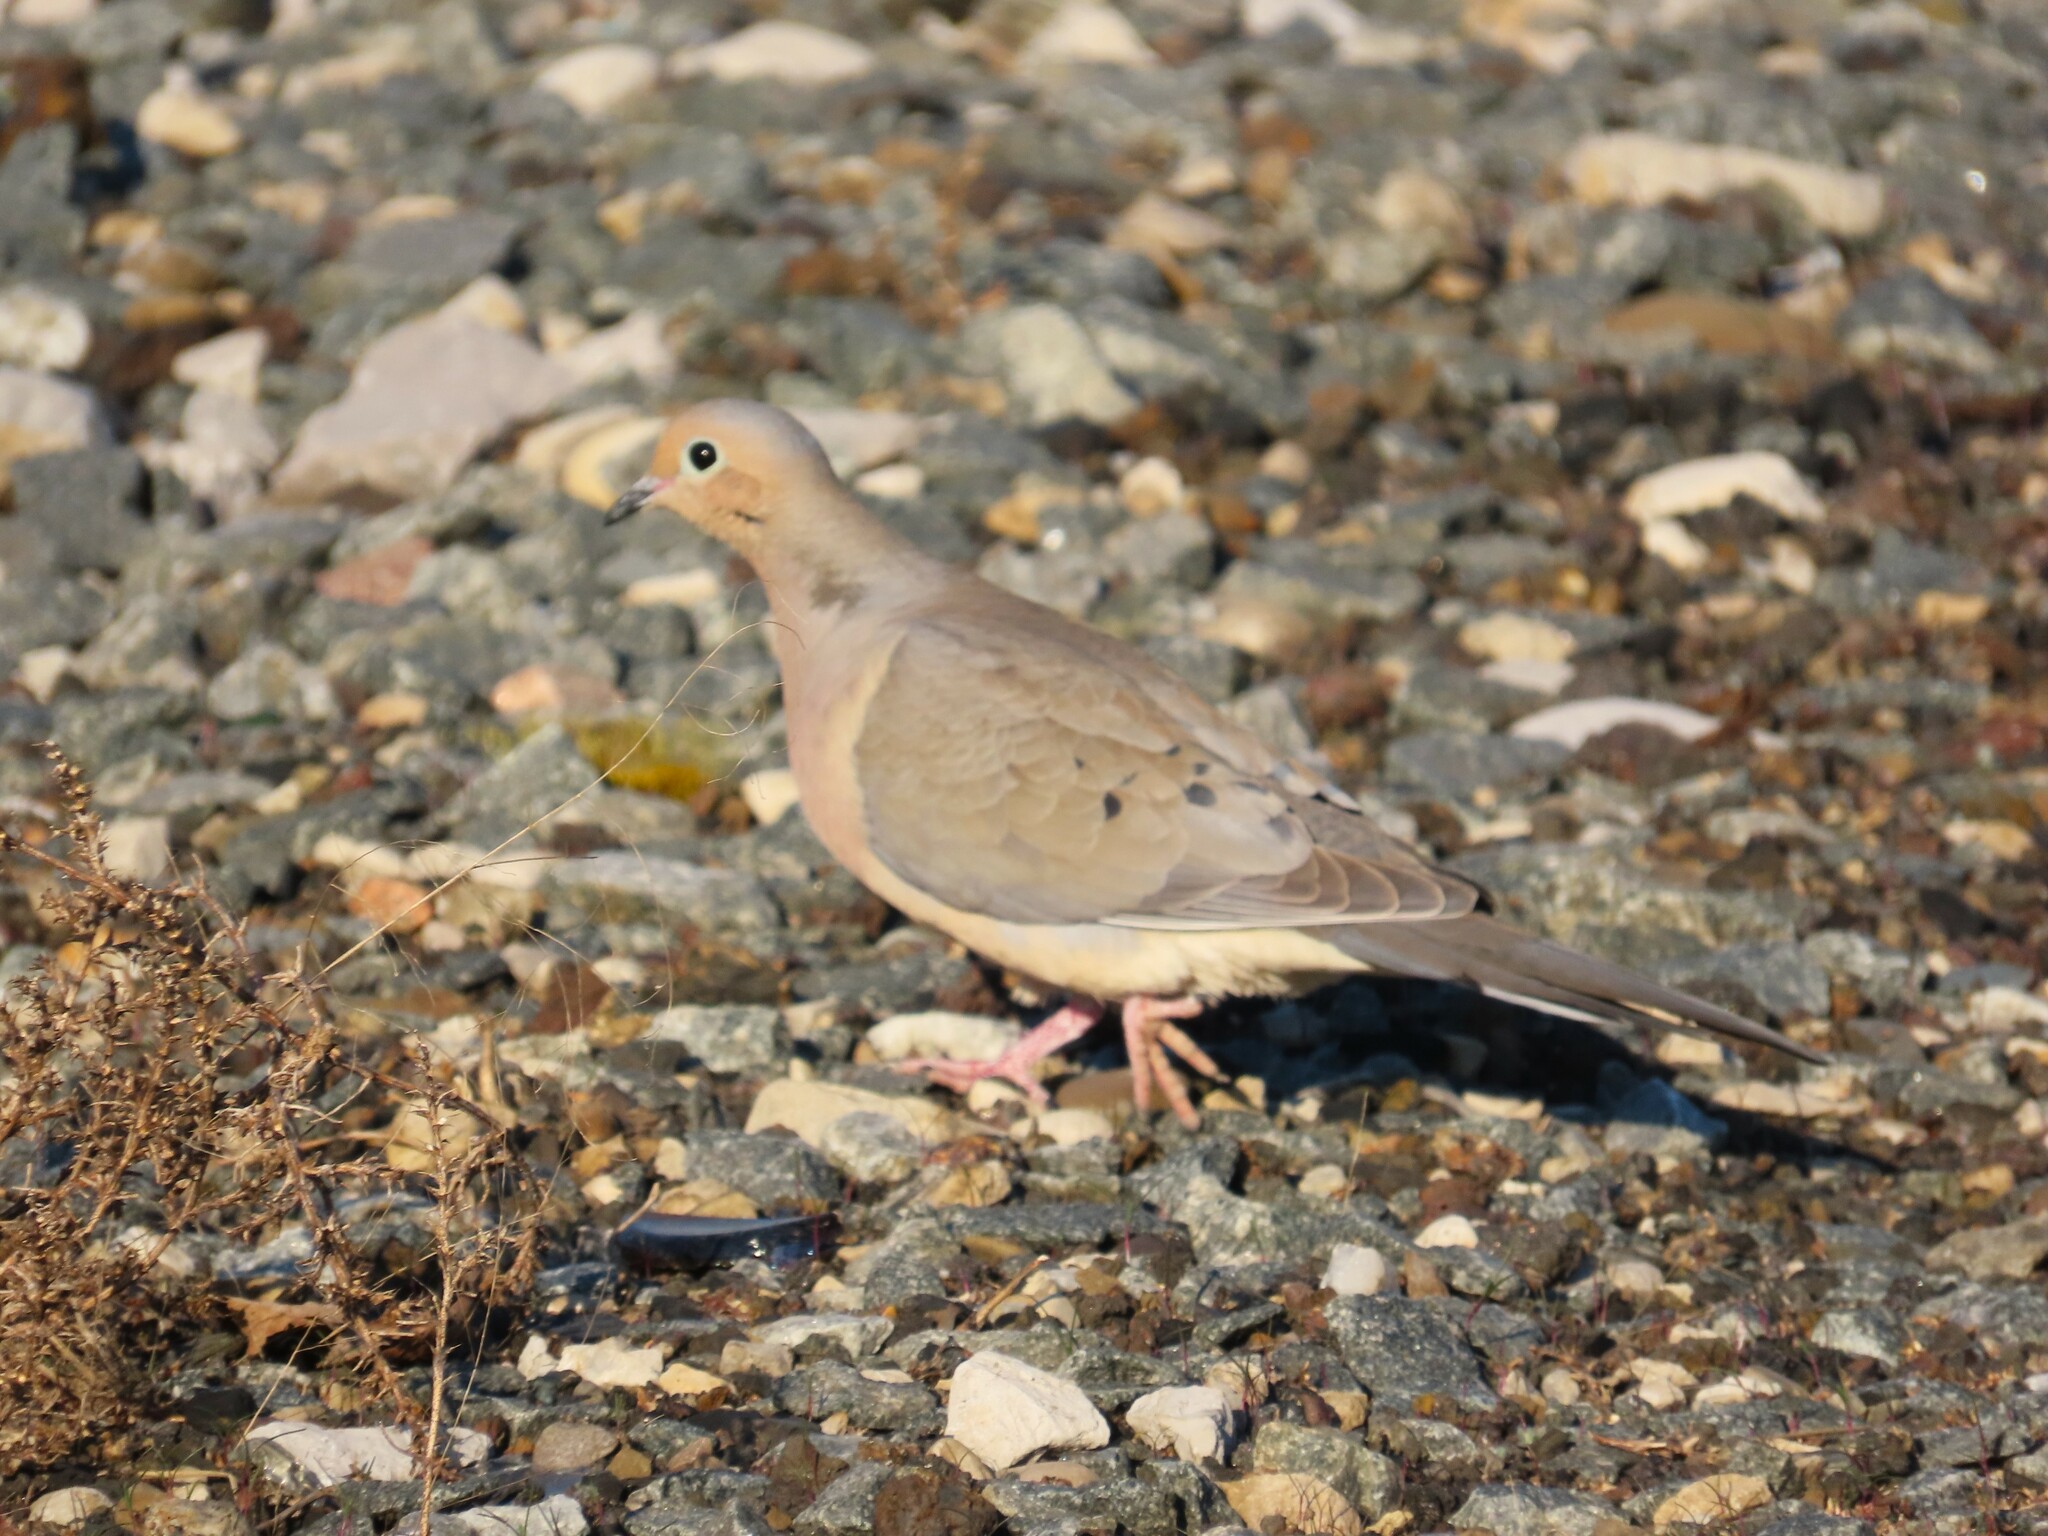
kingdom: Animalia
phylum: Chordata
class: Aves
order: Columbiformes
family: Columbidae
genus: Zenaida
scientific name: Zenaida macroura
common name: Mourning dove
